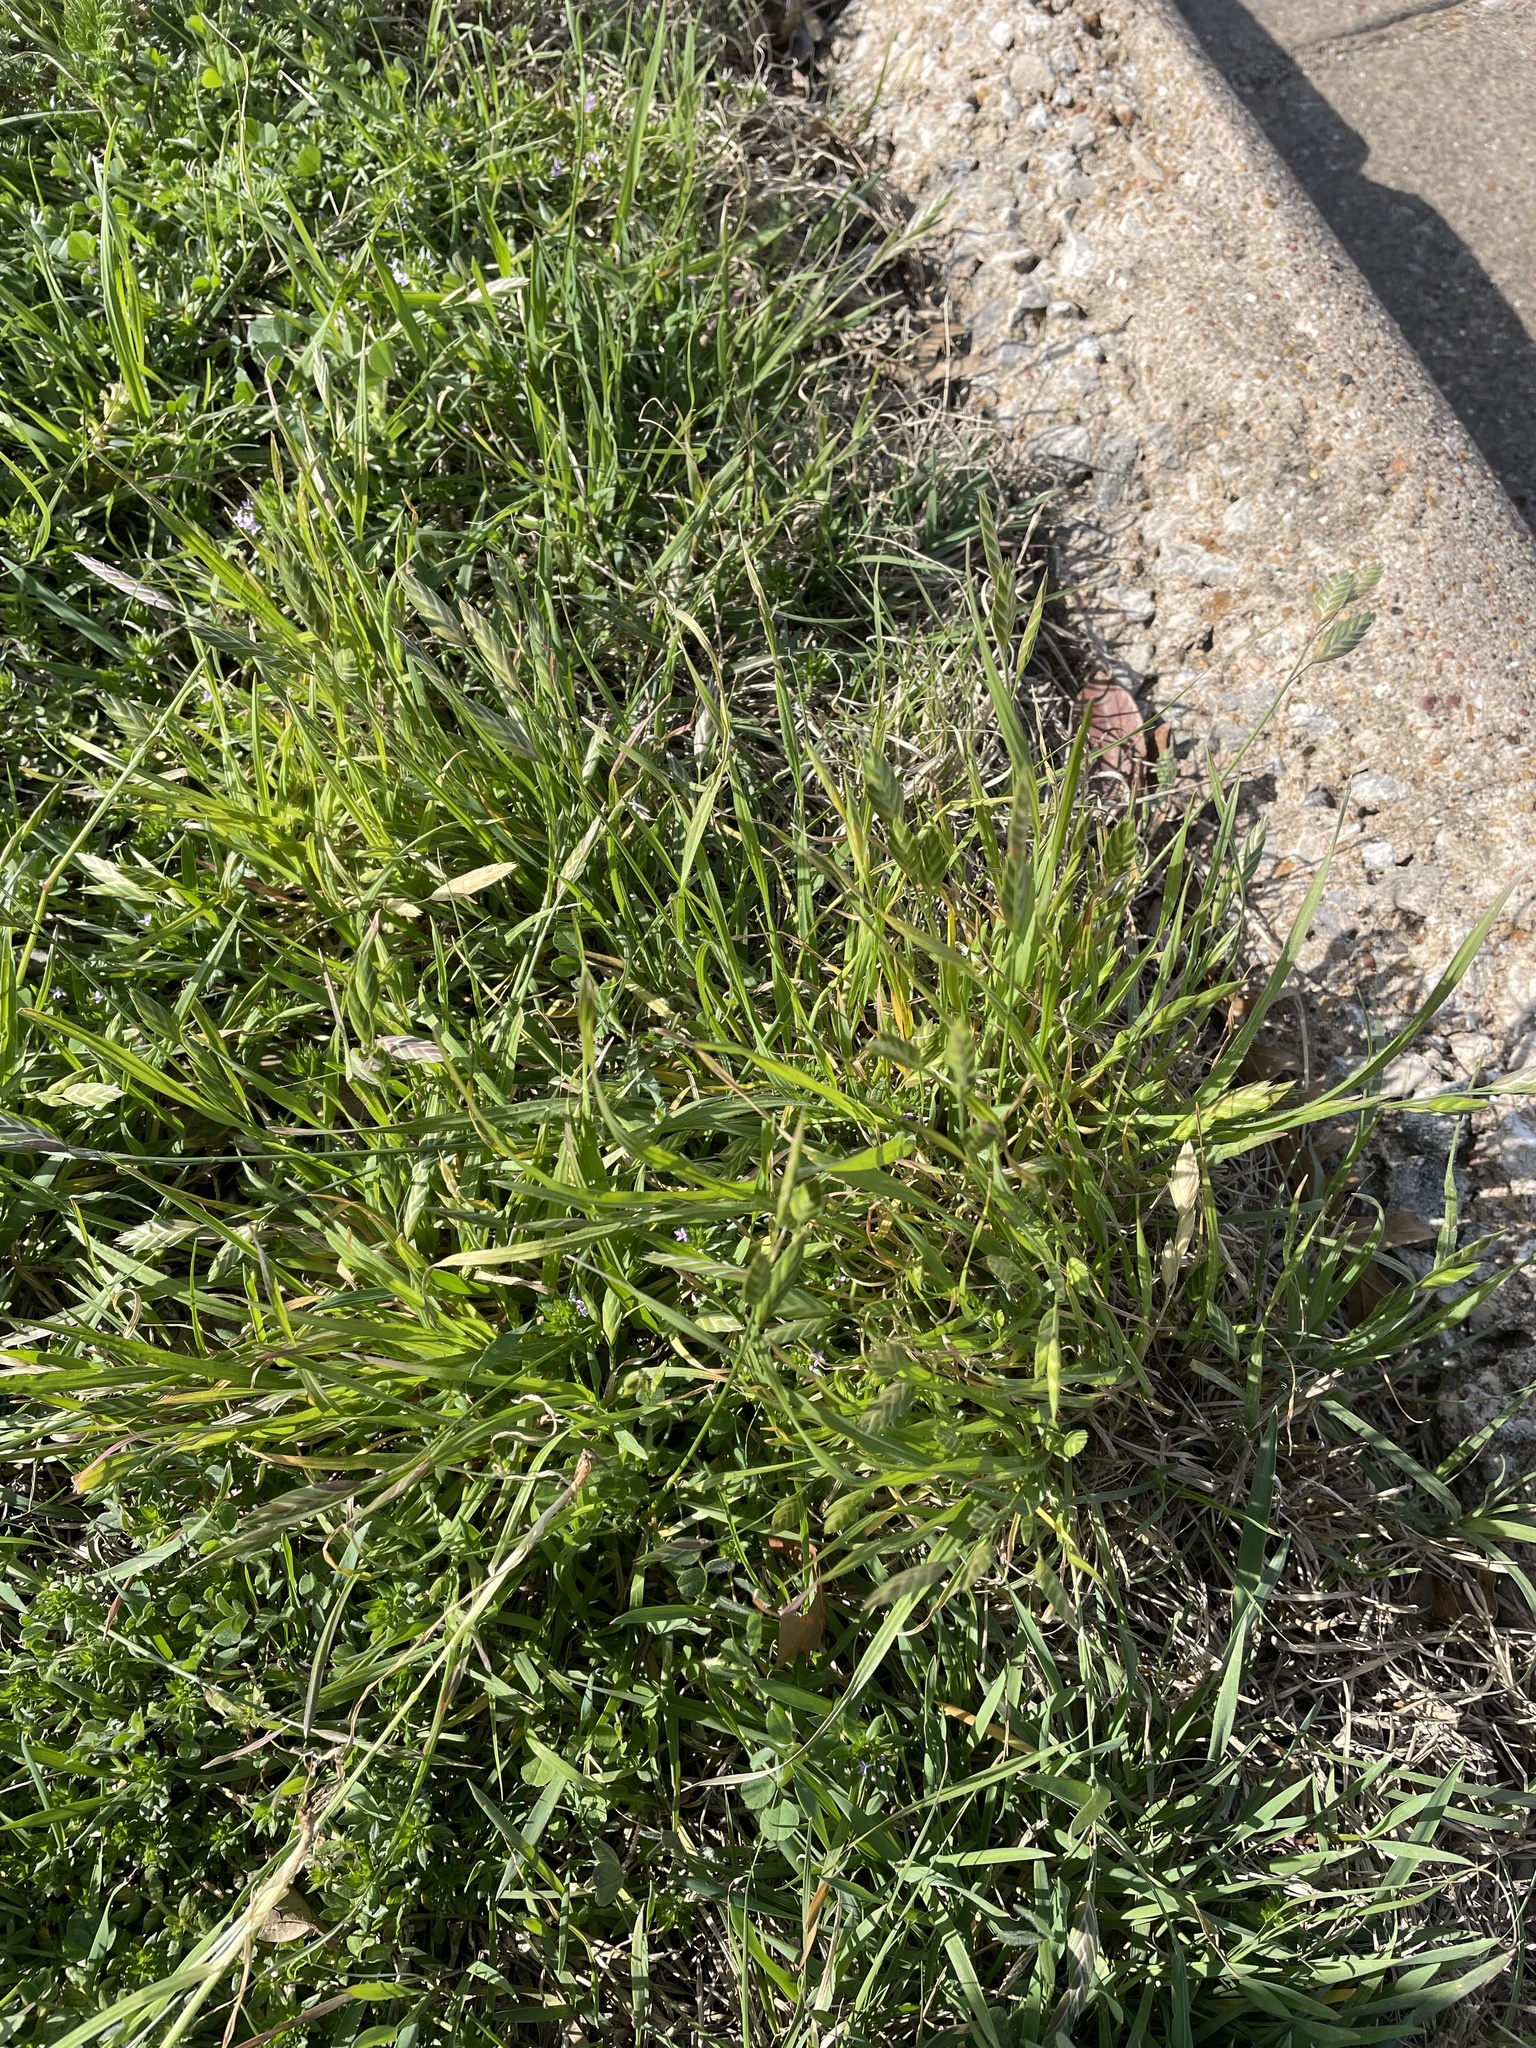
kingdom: Plantae
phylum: Tracheophyta
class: Liliopsida
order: Poales
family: Poaceae
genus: Bromus
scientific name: Bromus catharticus
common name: Rescuegrass
